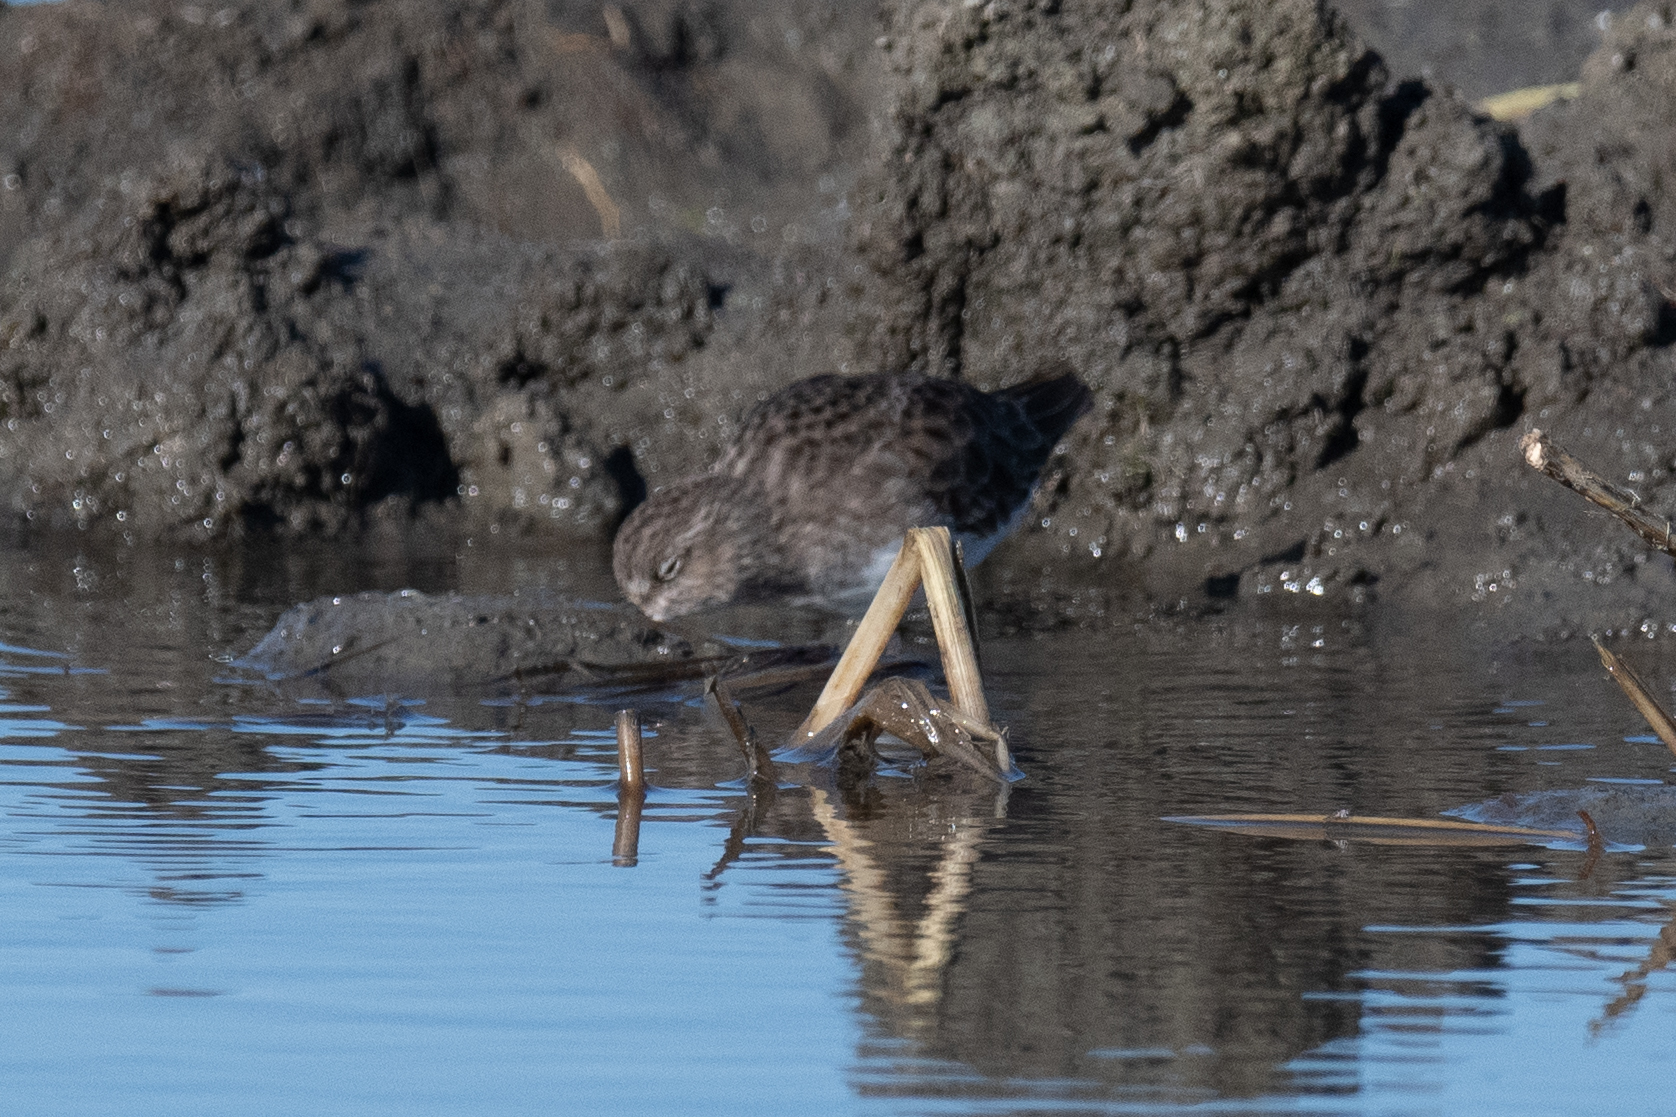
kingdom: Animalia
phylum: Chordata
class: Aves
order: Charadriiformes
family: Scolopacidae
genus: Calidris
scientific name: Calidris minutilla
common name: Least sandpiper
